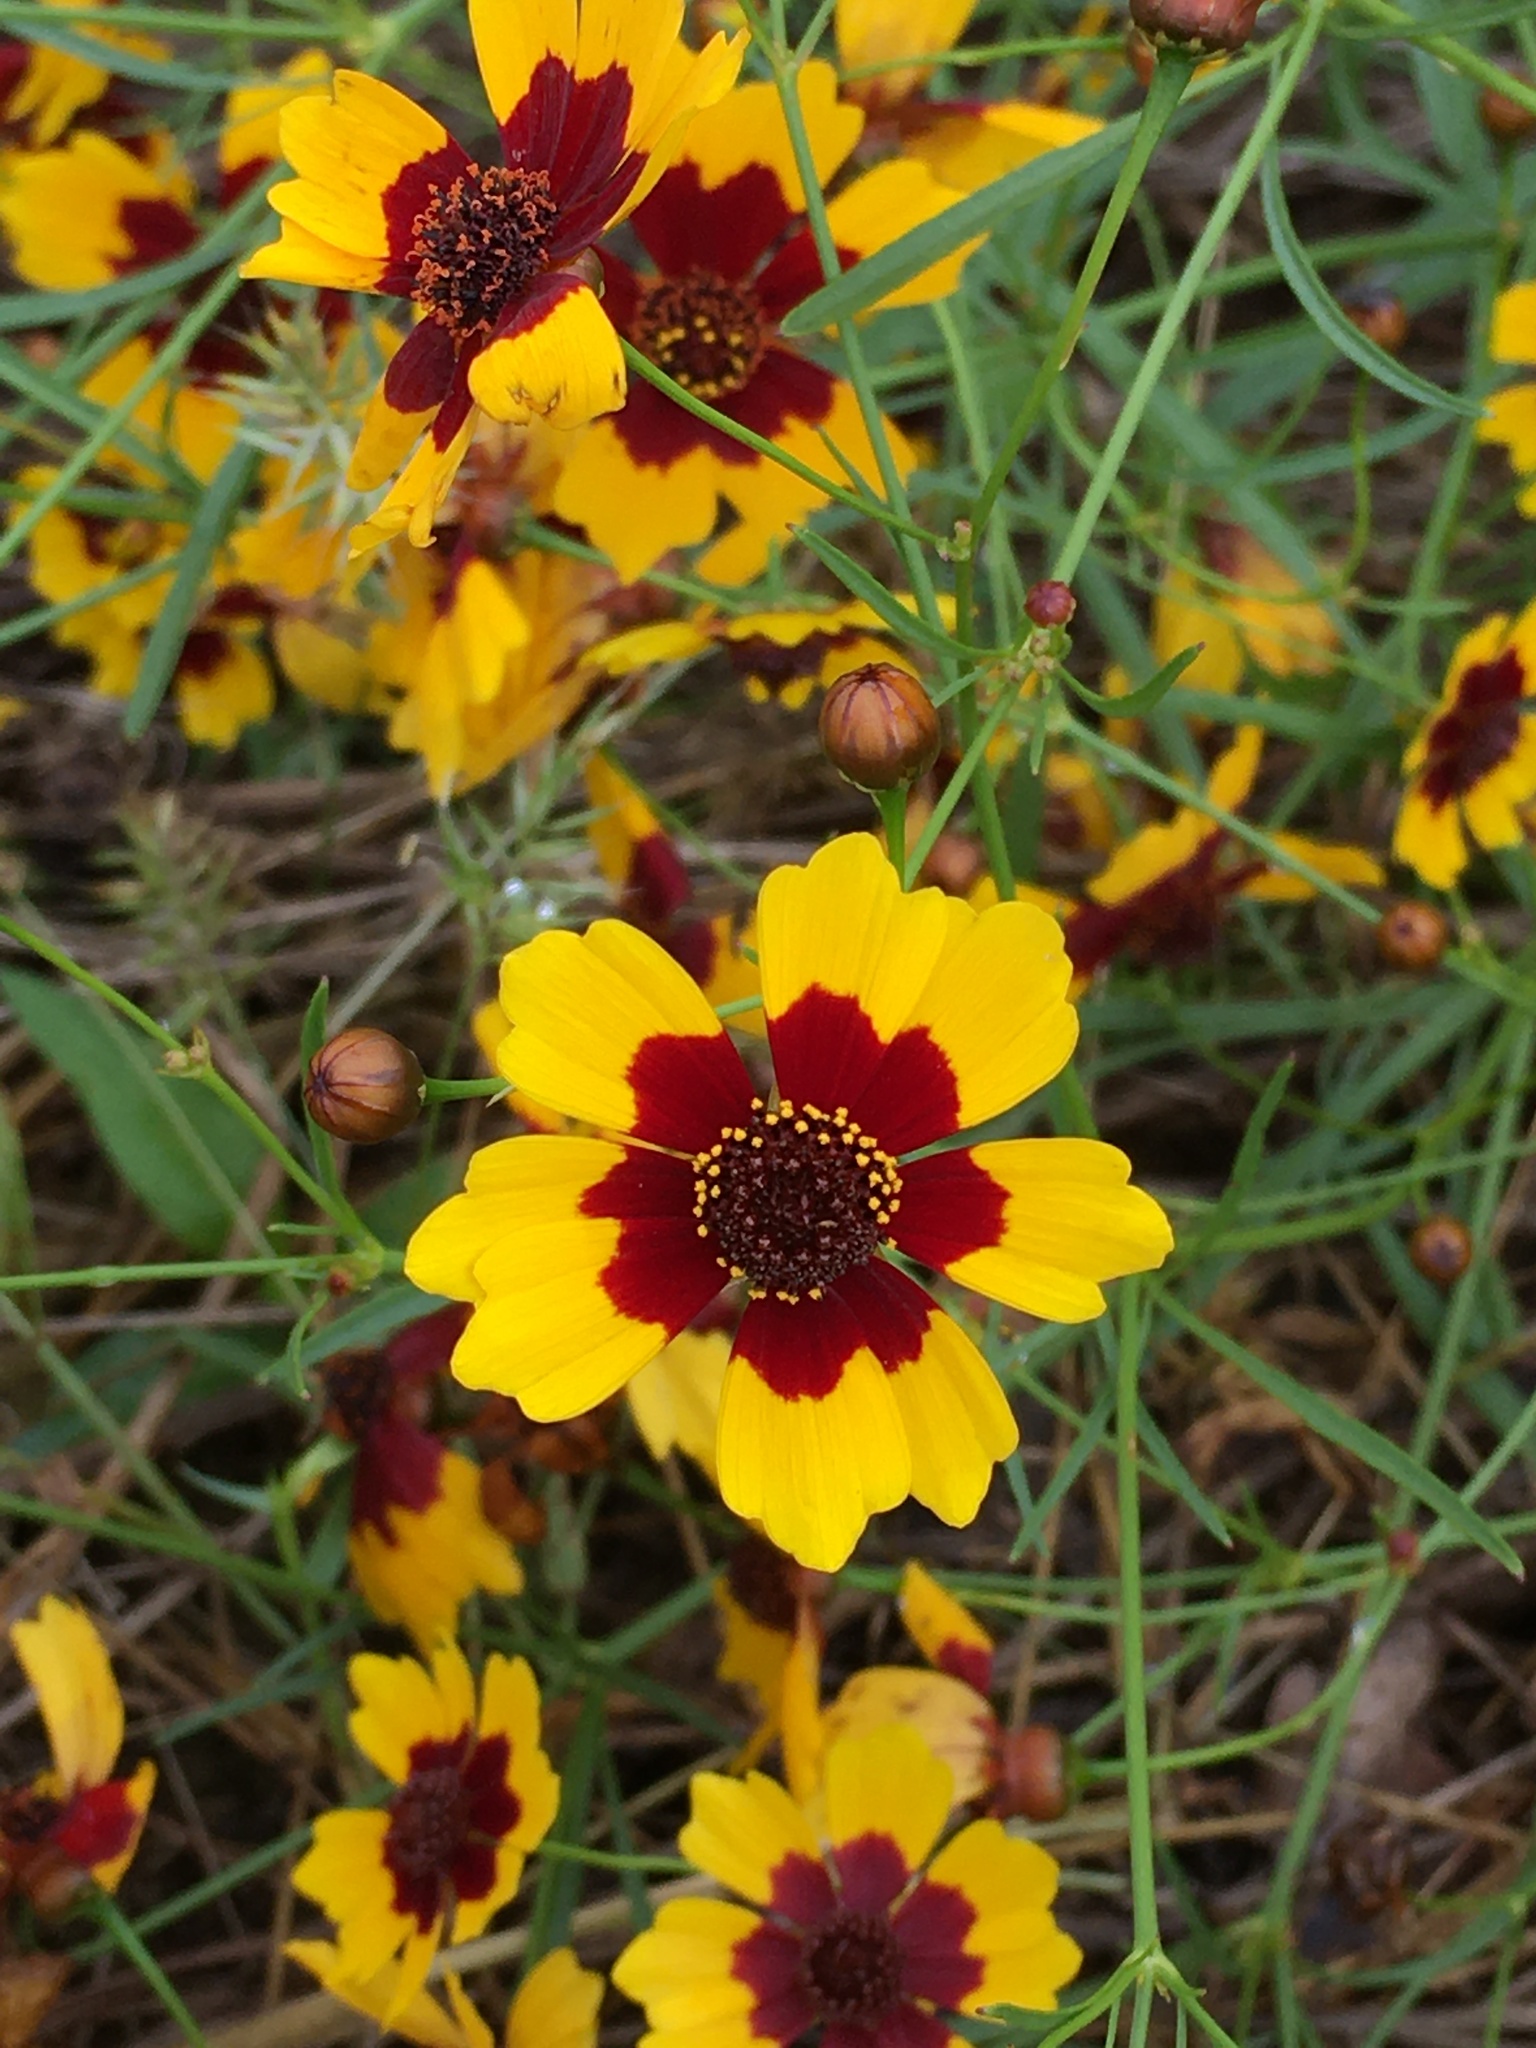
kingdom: Plantae
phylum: Tracheophyta
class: Magnoliopsida
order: Asterales
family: Asteraceae
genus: Coreopsis
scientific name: Coreopsis tinctoria
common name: Garden tickseed
